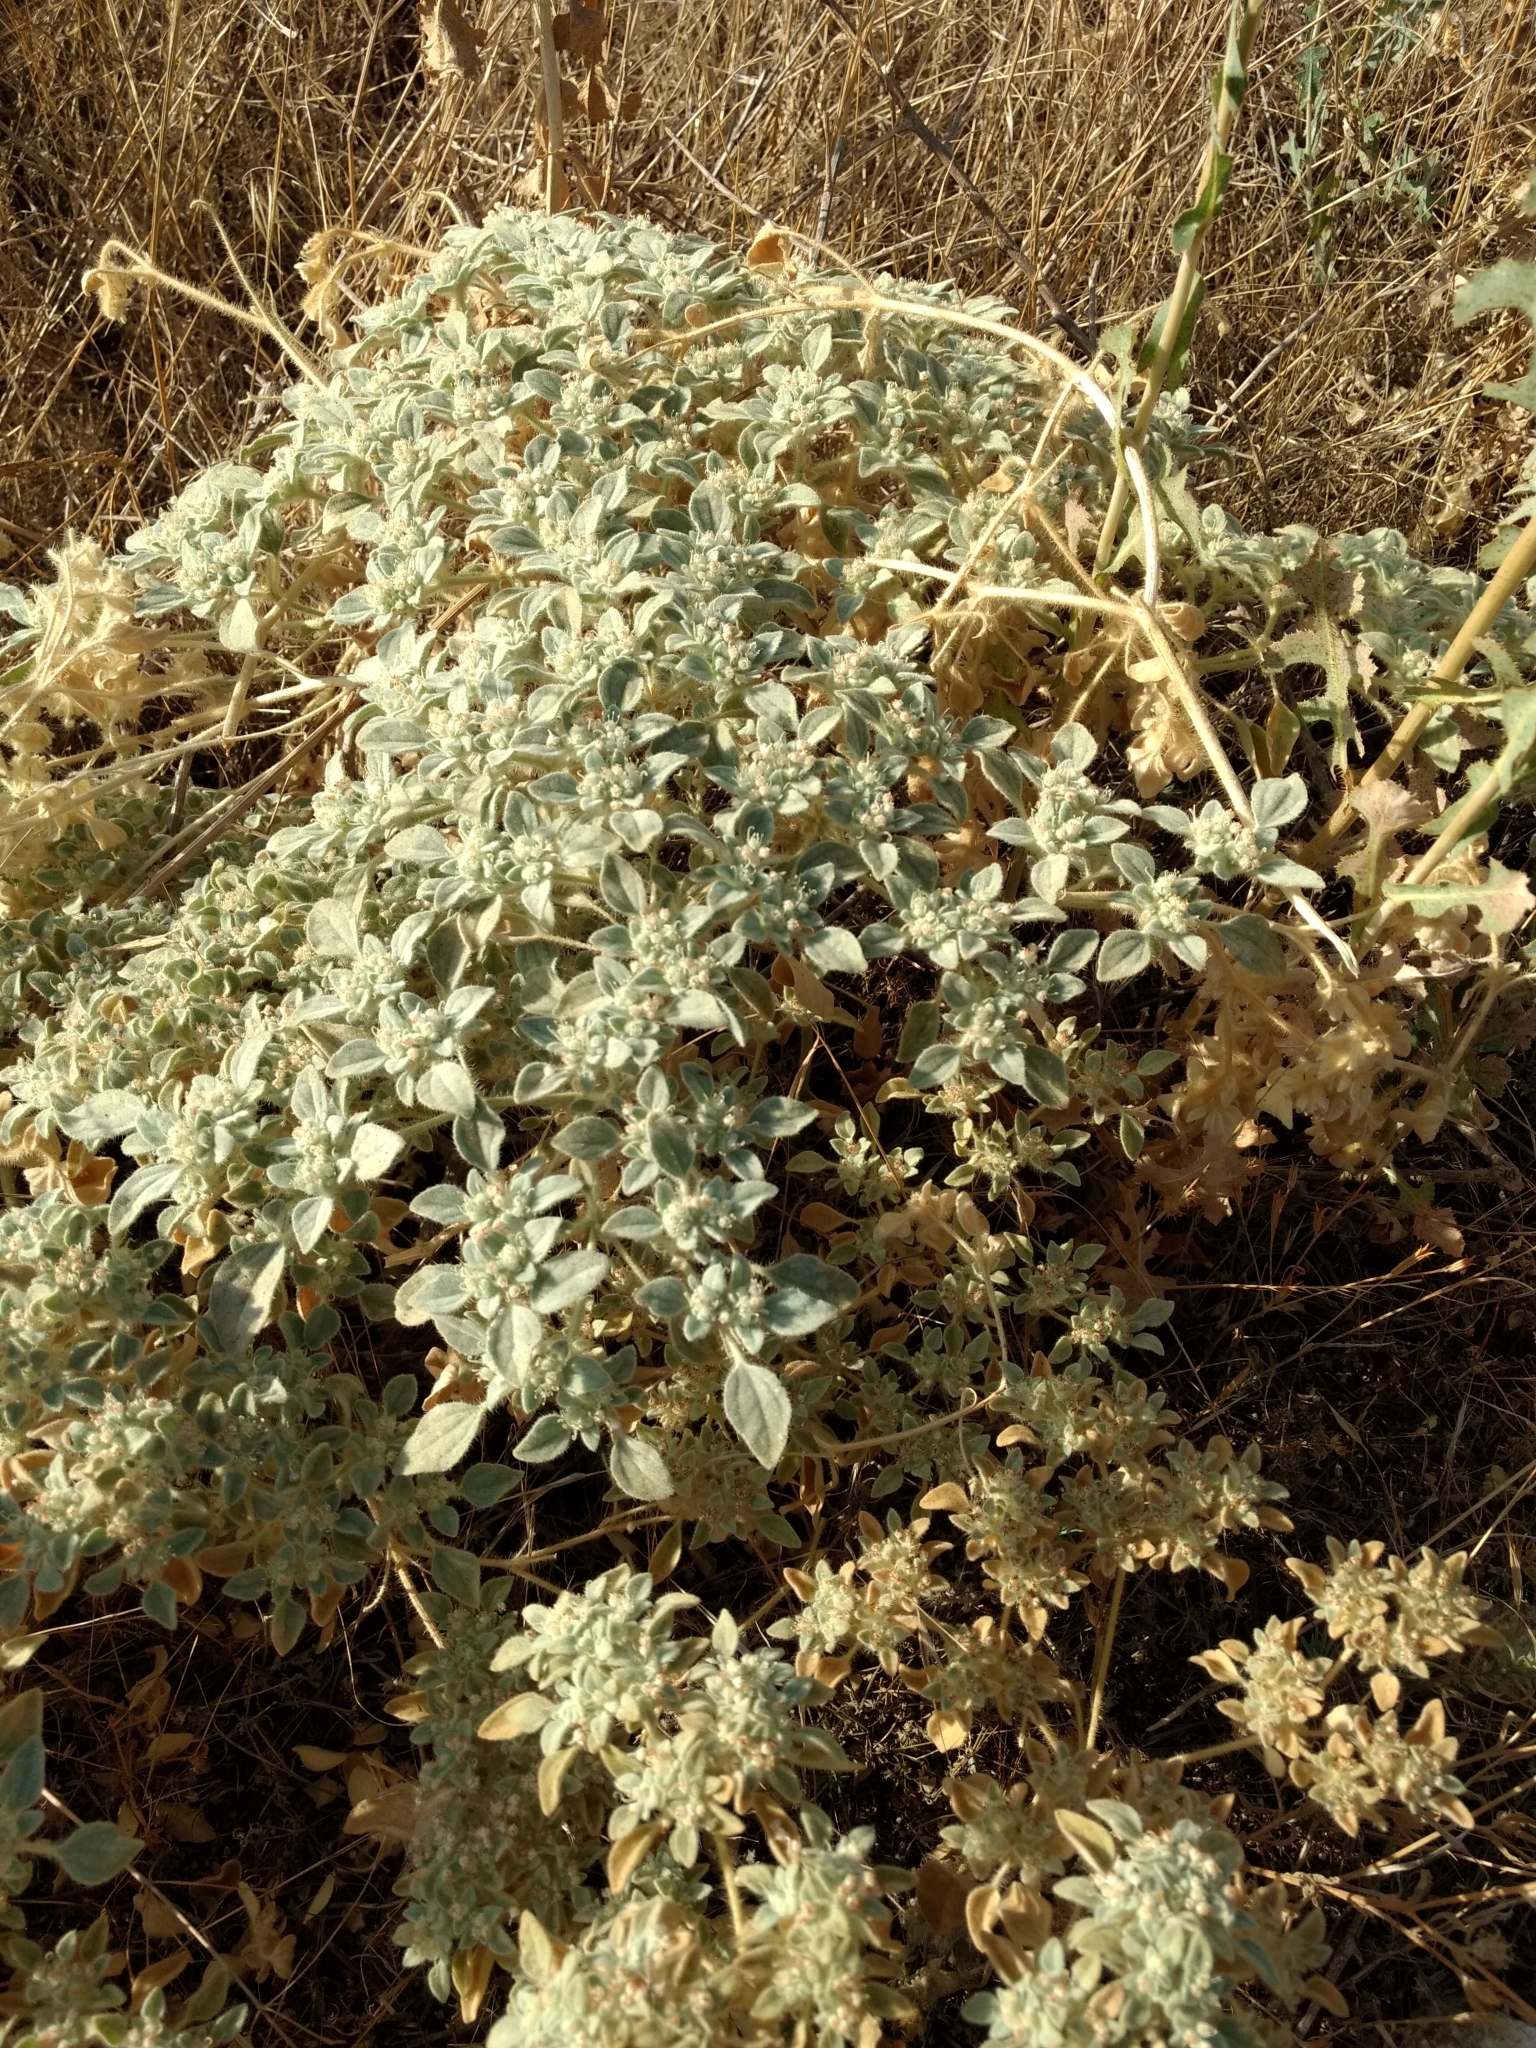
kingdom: Plantae
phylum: Tracheophyta
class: Magnoliopsida
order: Malpighiales
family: Euphorbiaceae
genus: Croton
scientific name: Croton setiger
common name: Dove weed
